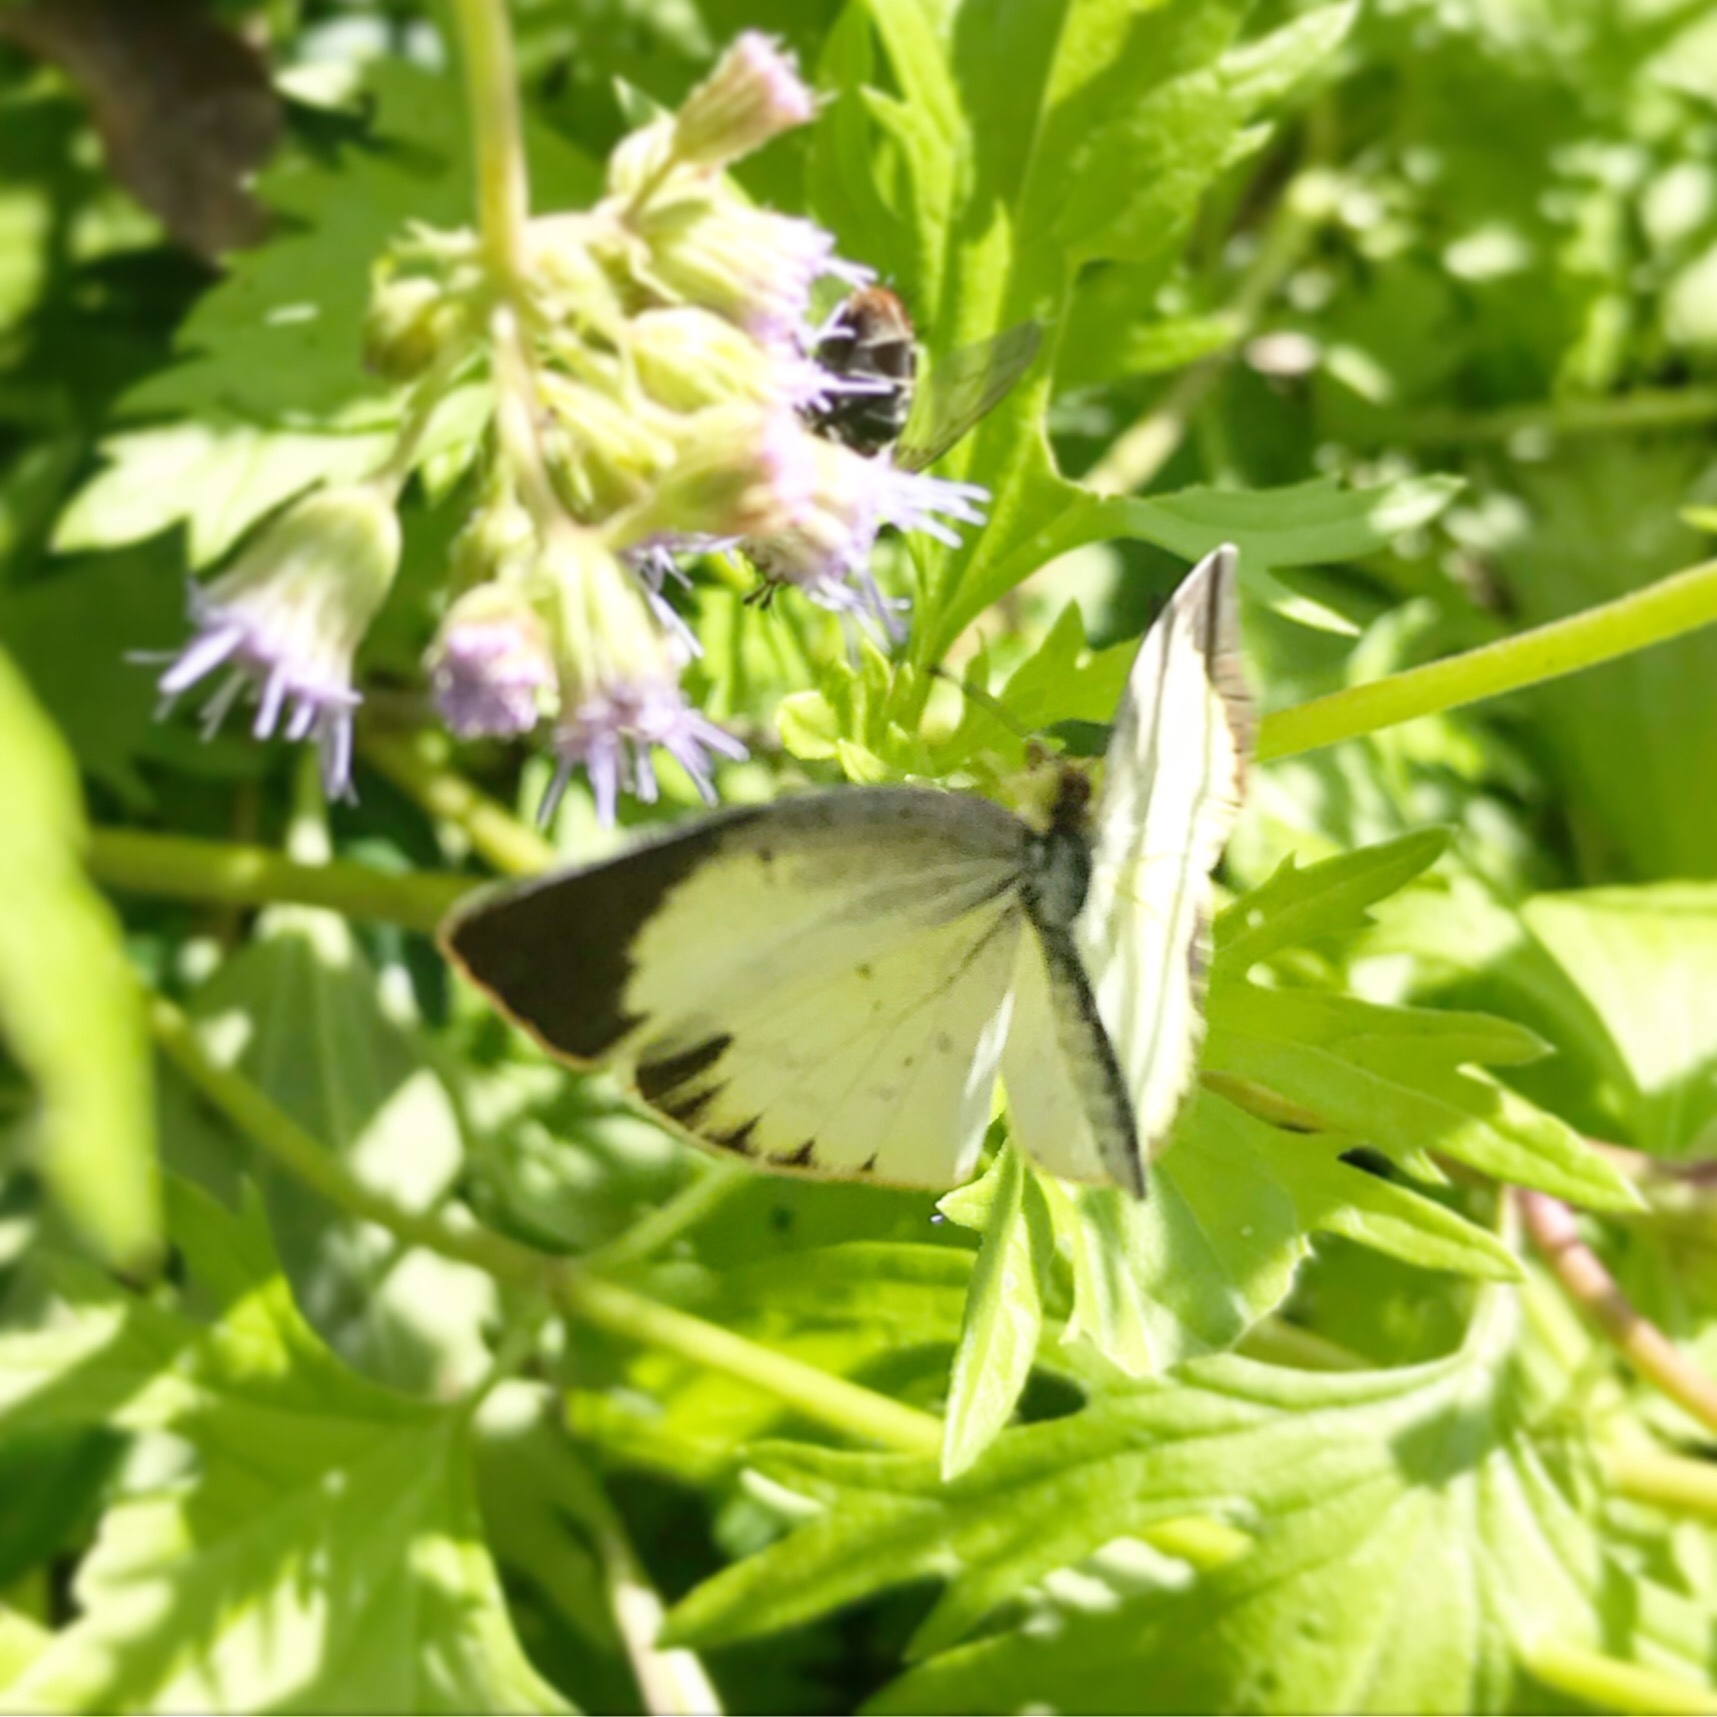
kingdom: Animalia
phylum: Arthropoda
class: Insecta
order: Lepidoptera
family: Pieridae
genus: Pyrisitia
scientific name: Pyrisitia lisa
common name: Little yellow
